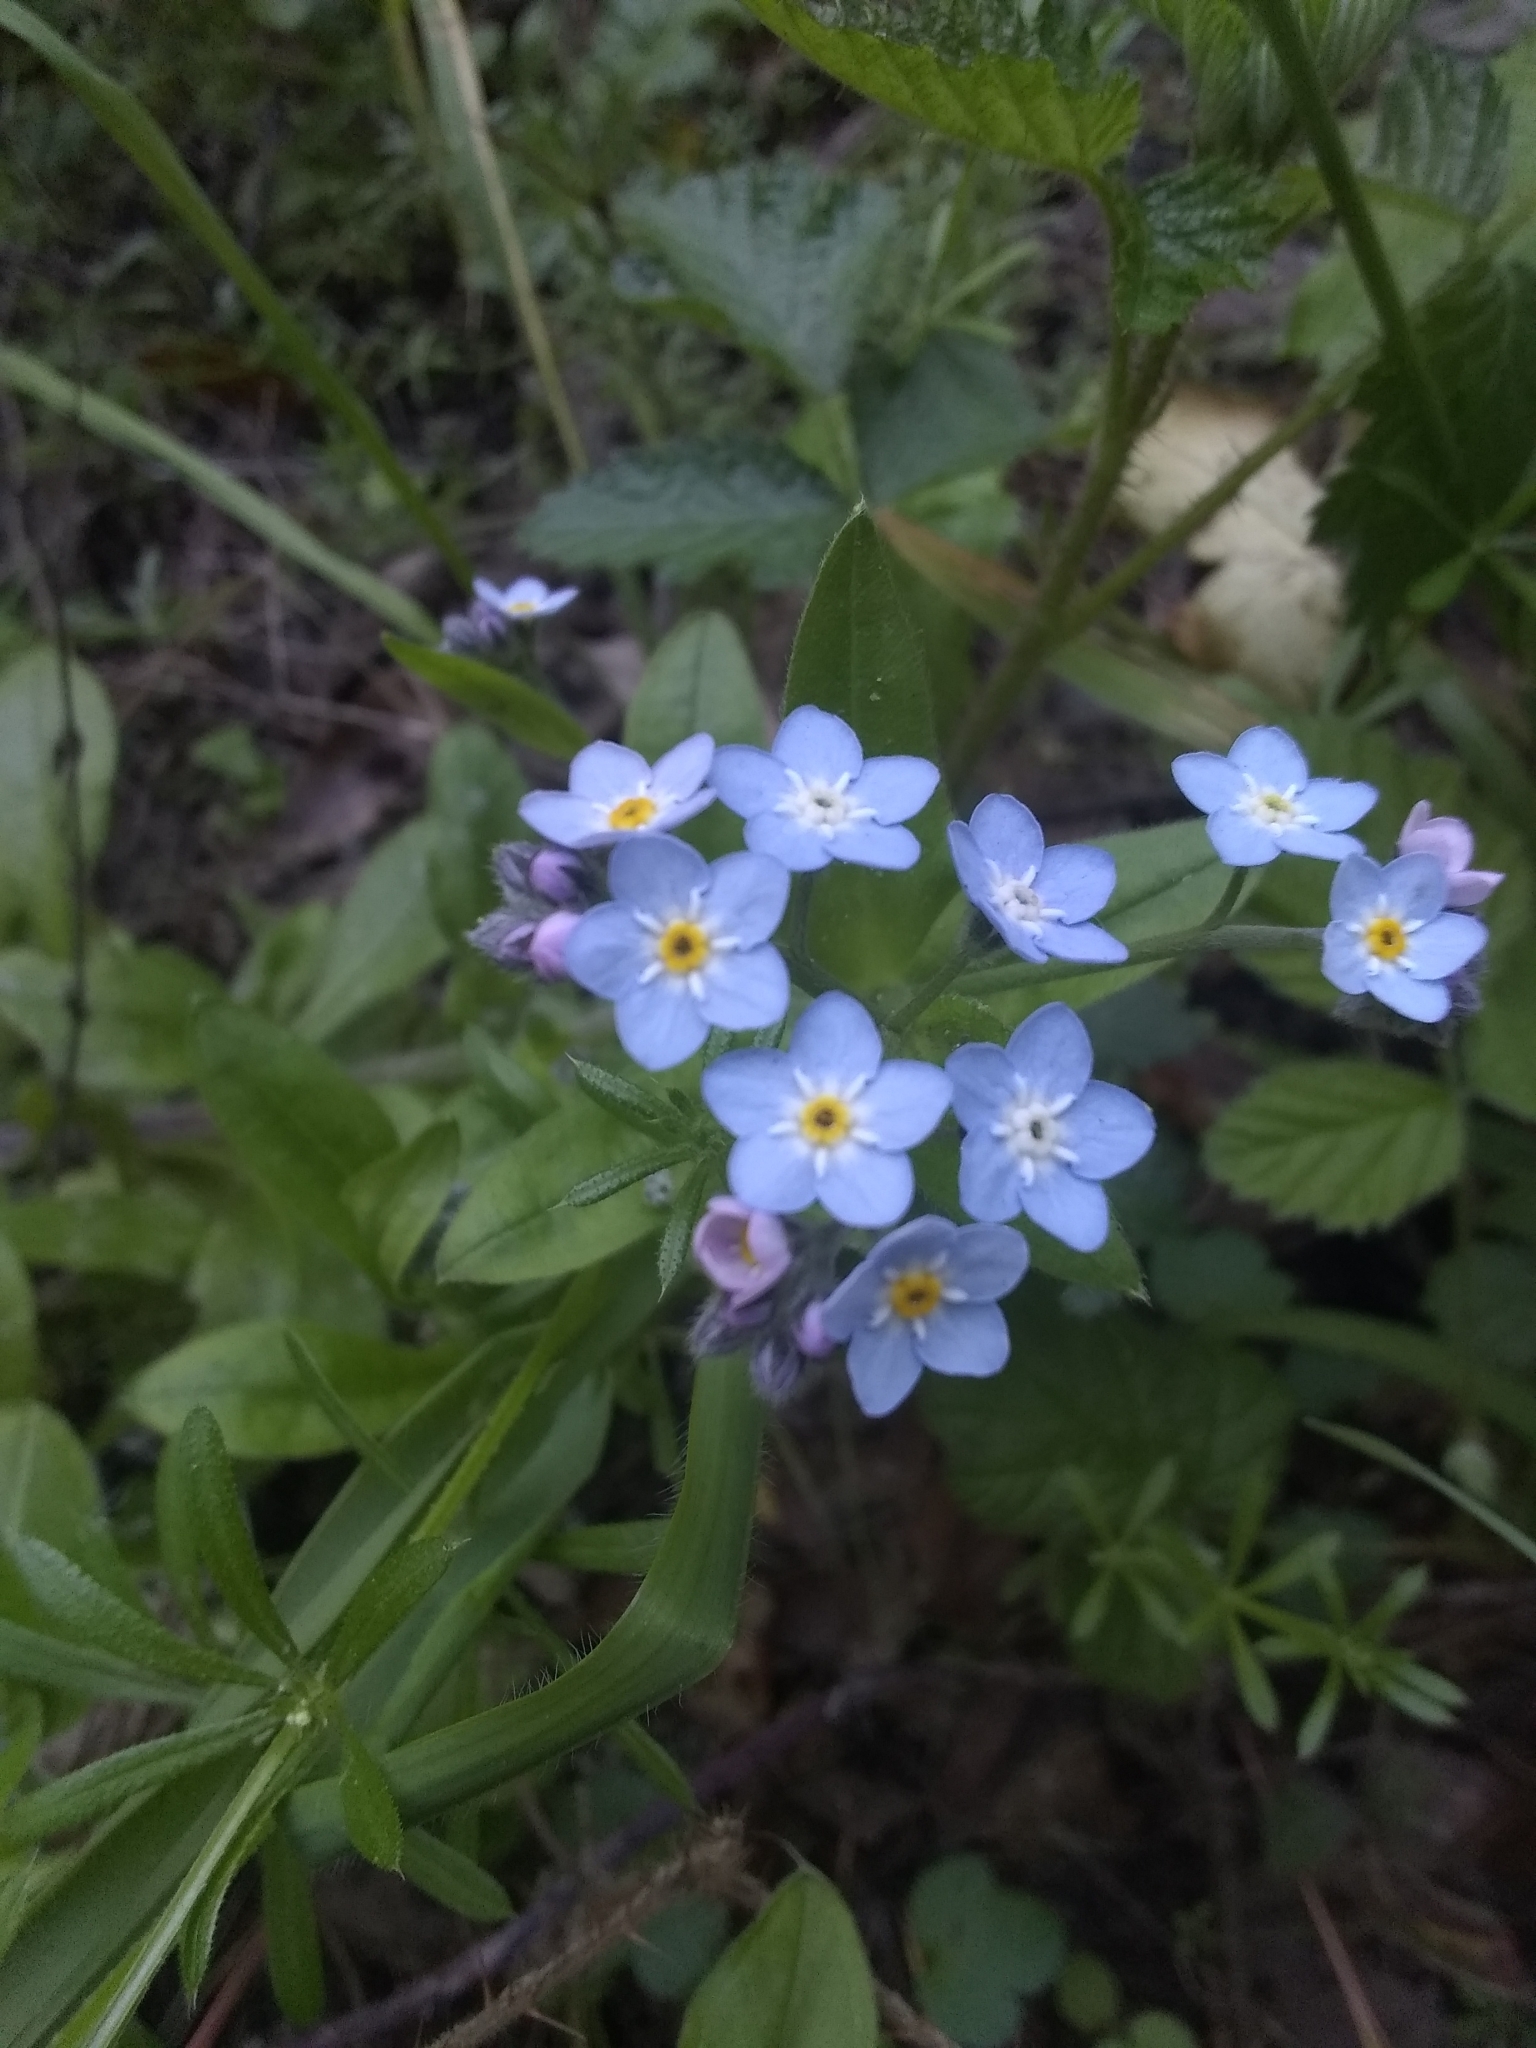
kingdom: Plantae
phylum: Tracheophyta
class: Magnoliopsida
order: Boraginales
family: Boraginaceae
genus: Myosotis
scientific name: Myosotis latifolia
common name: Broadleaf forget-me-not
